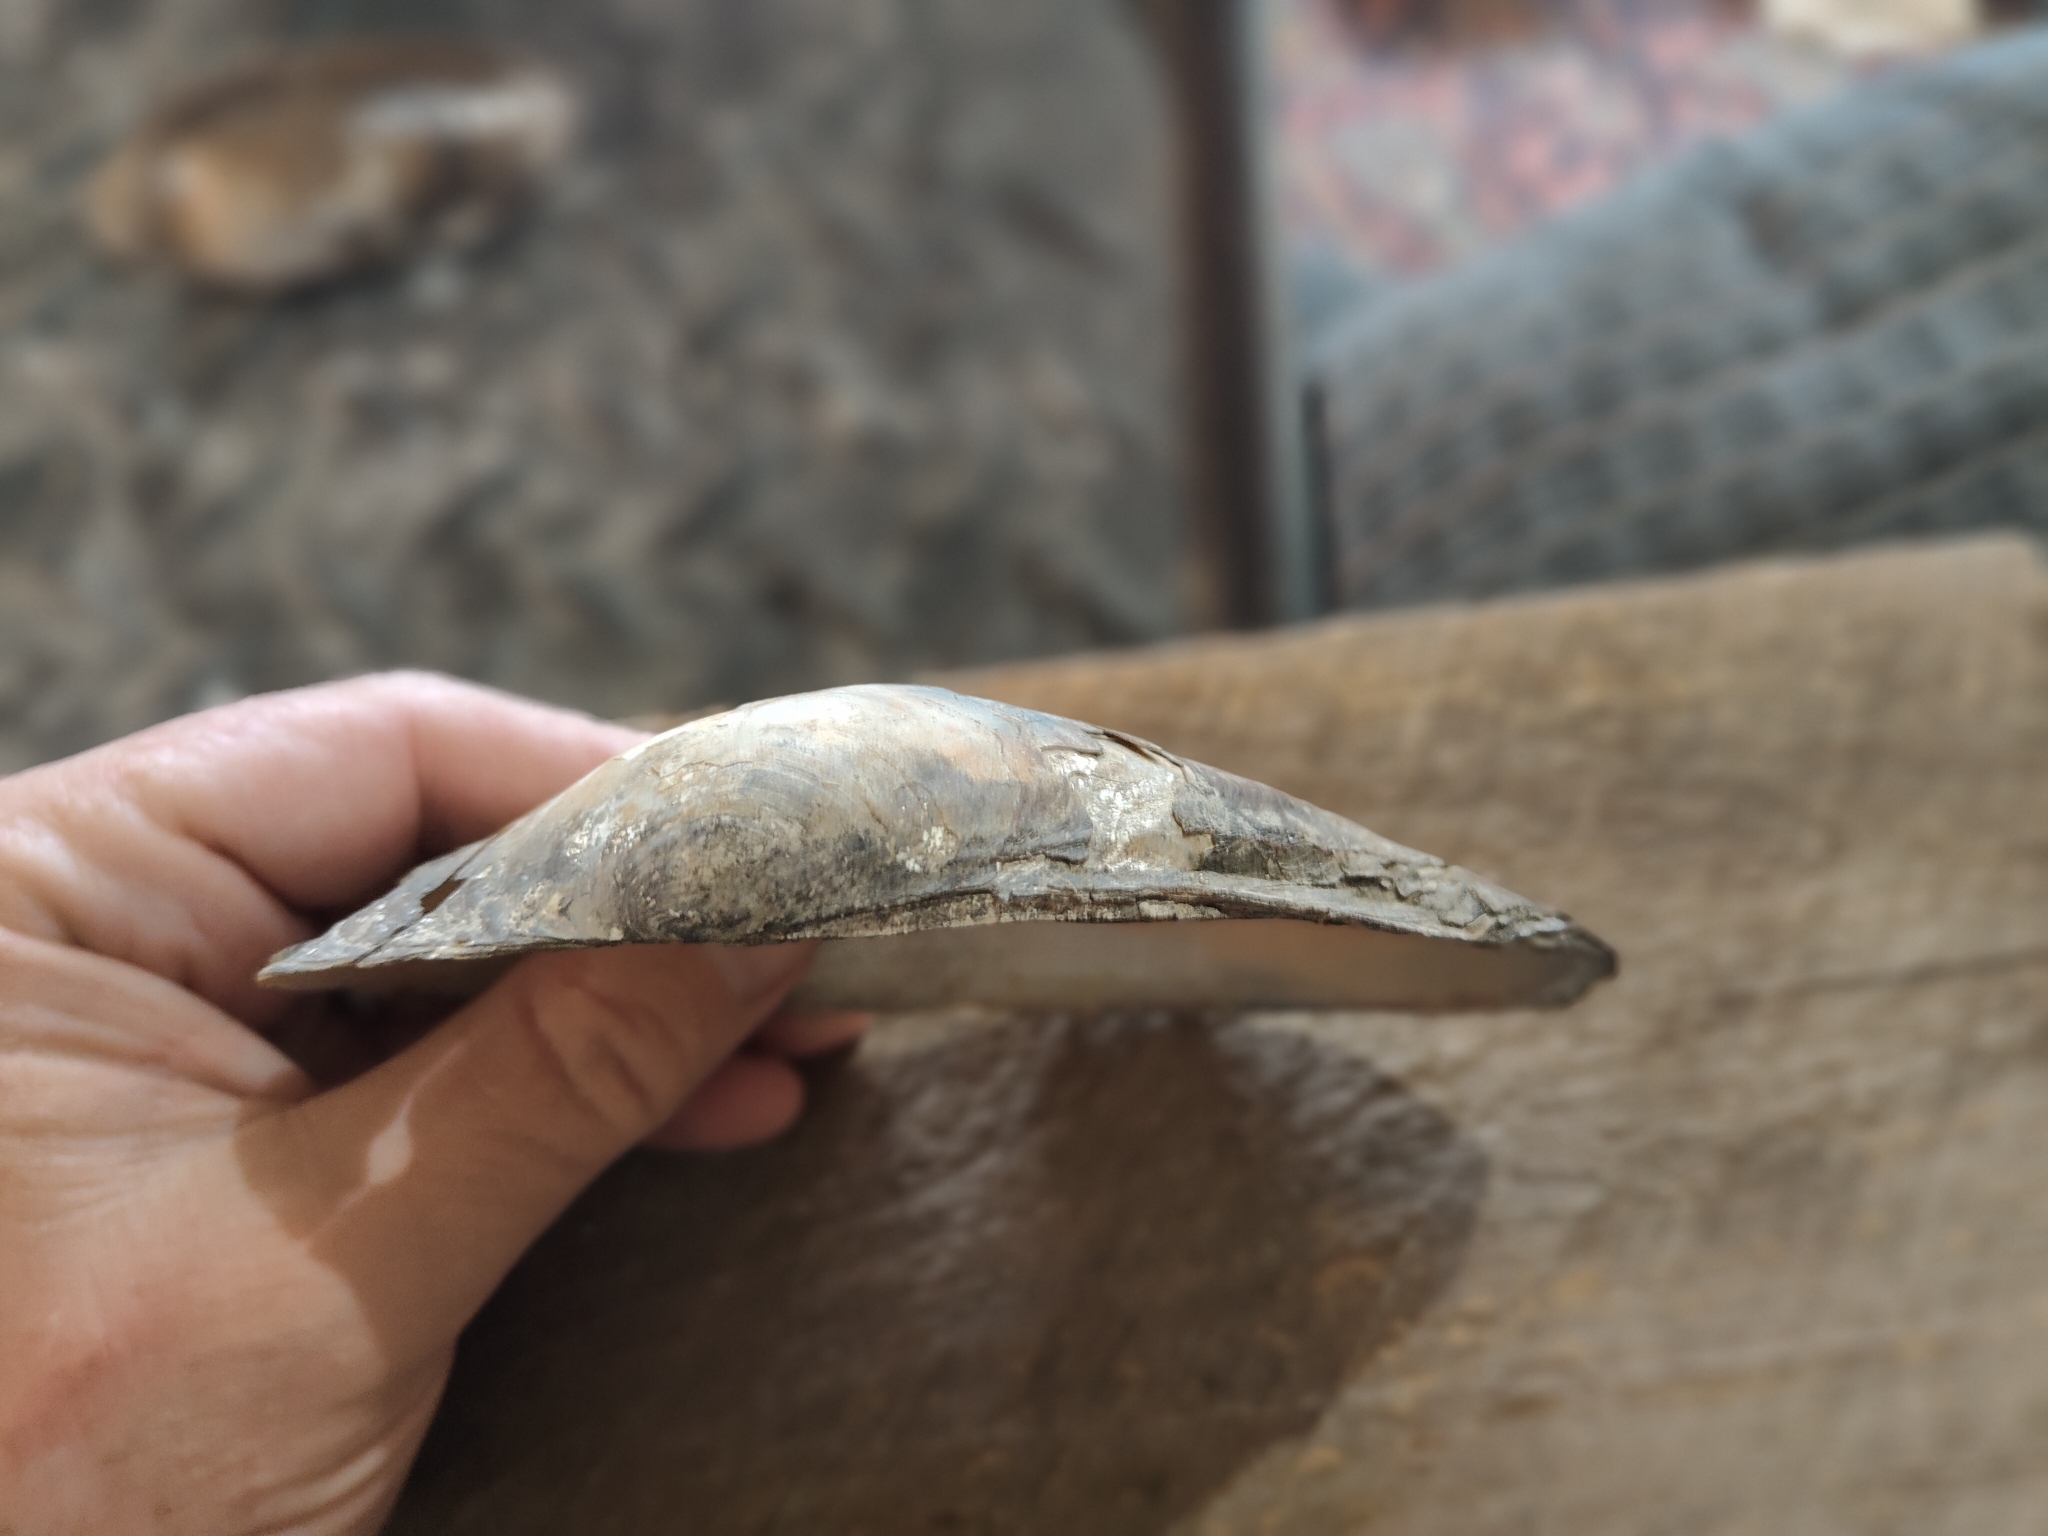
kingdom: Animalia
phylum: Mollusca
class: Bivalvia
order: Unionida
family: Unionidae
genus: Pyganodon
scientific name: Pyganodon grandis
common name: Giant floater
